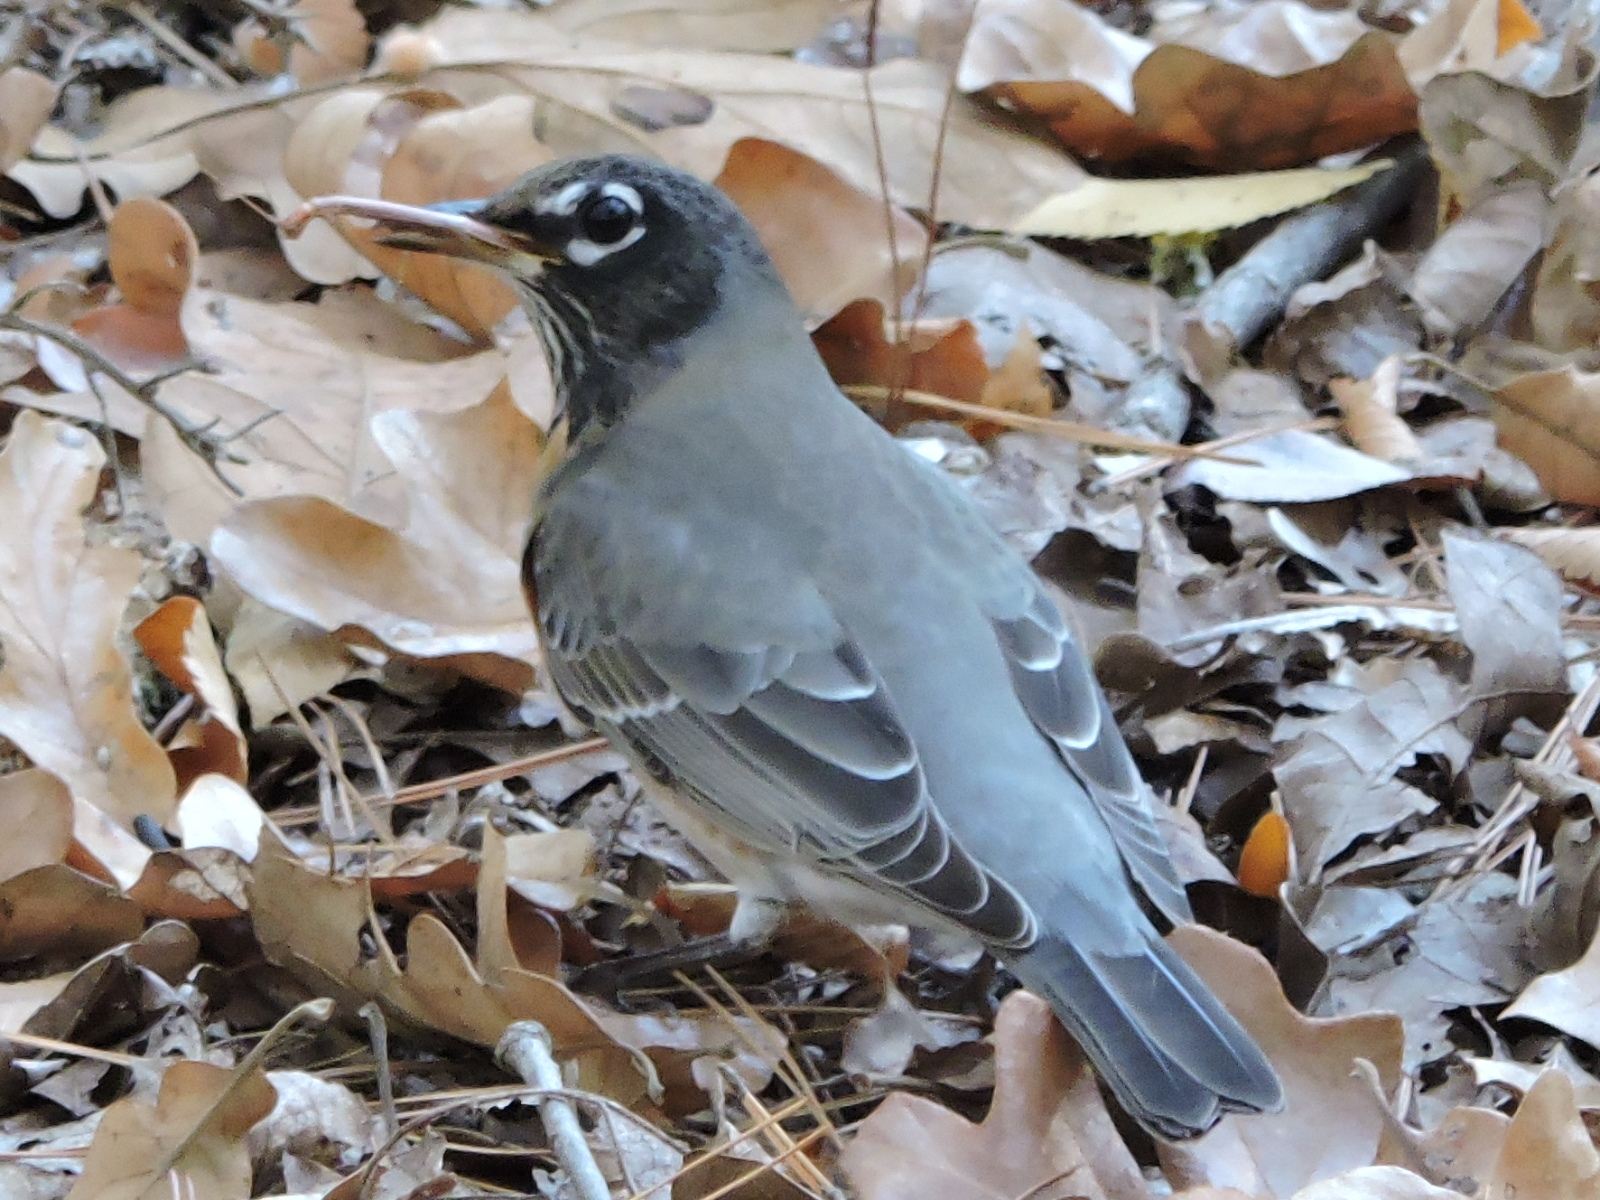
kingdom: Animalia
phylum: Chordata
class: Aves
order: Passeriformes
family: Turdidae
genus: Turdus
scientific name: Turdus migratorius
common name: American robin
